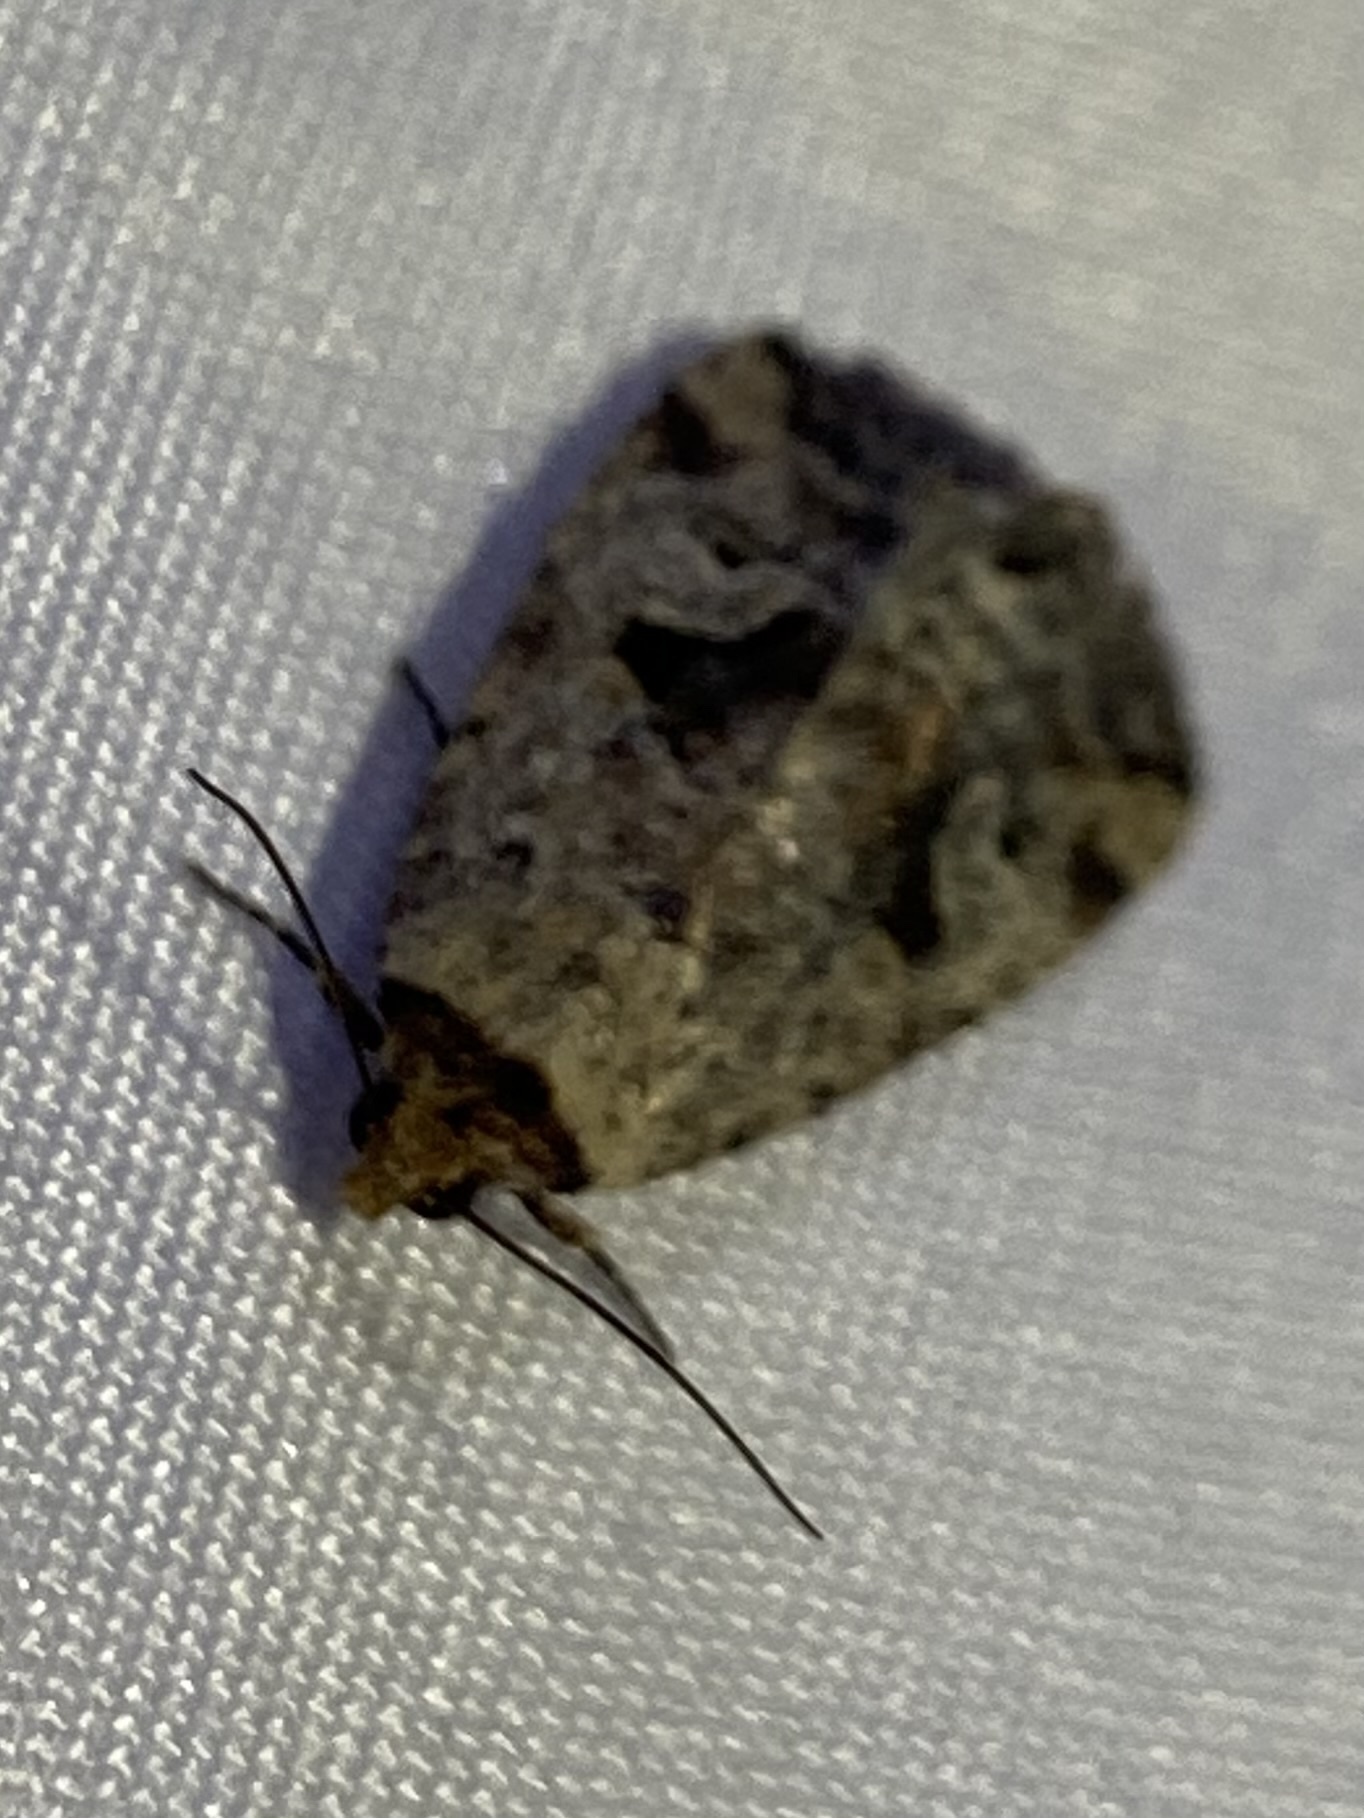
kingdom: Animalia
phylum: Arthropoda
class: Insecta
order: Lepidoptera
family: Noctuidae
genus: Elaphria
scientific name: Elaphria festivoides
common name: Festive midget
